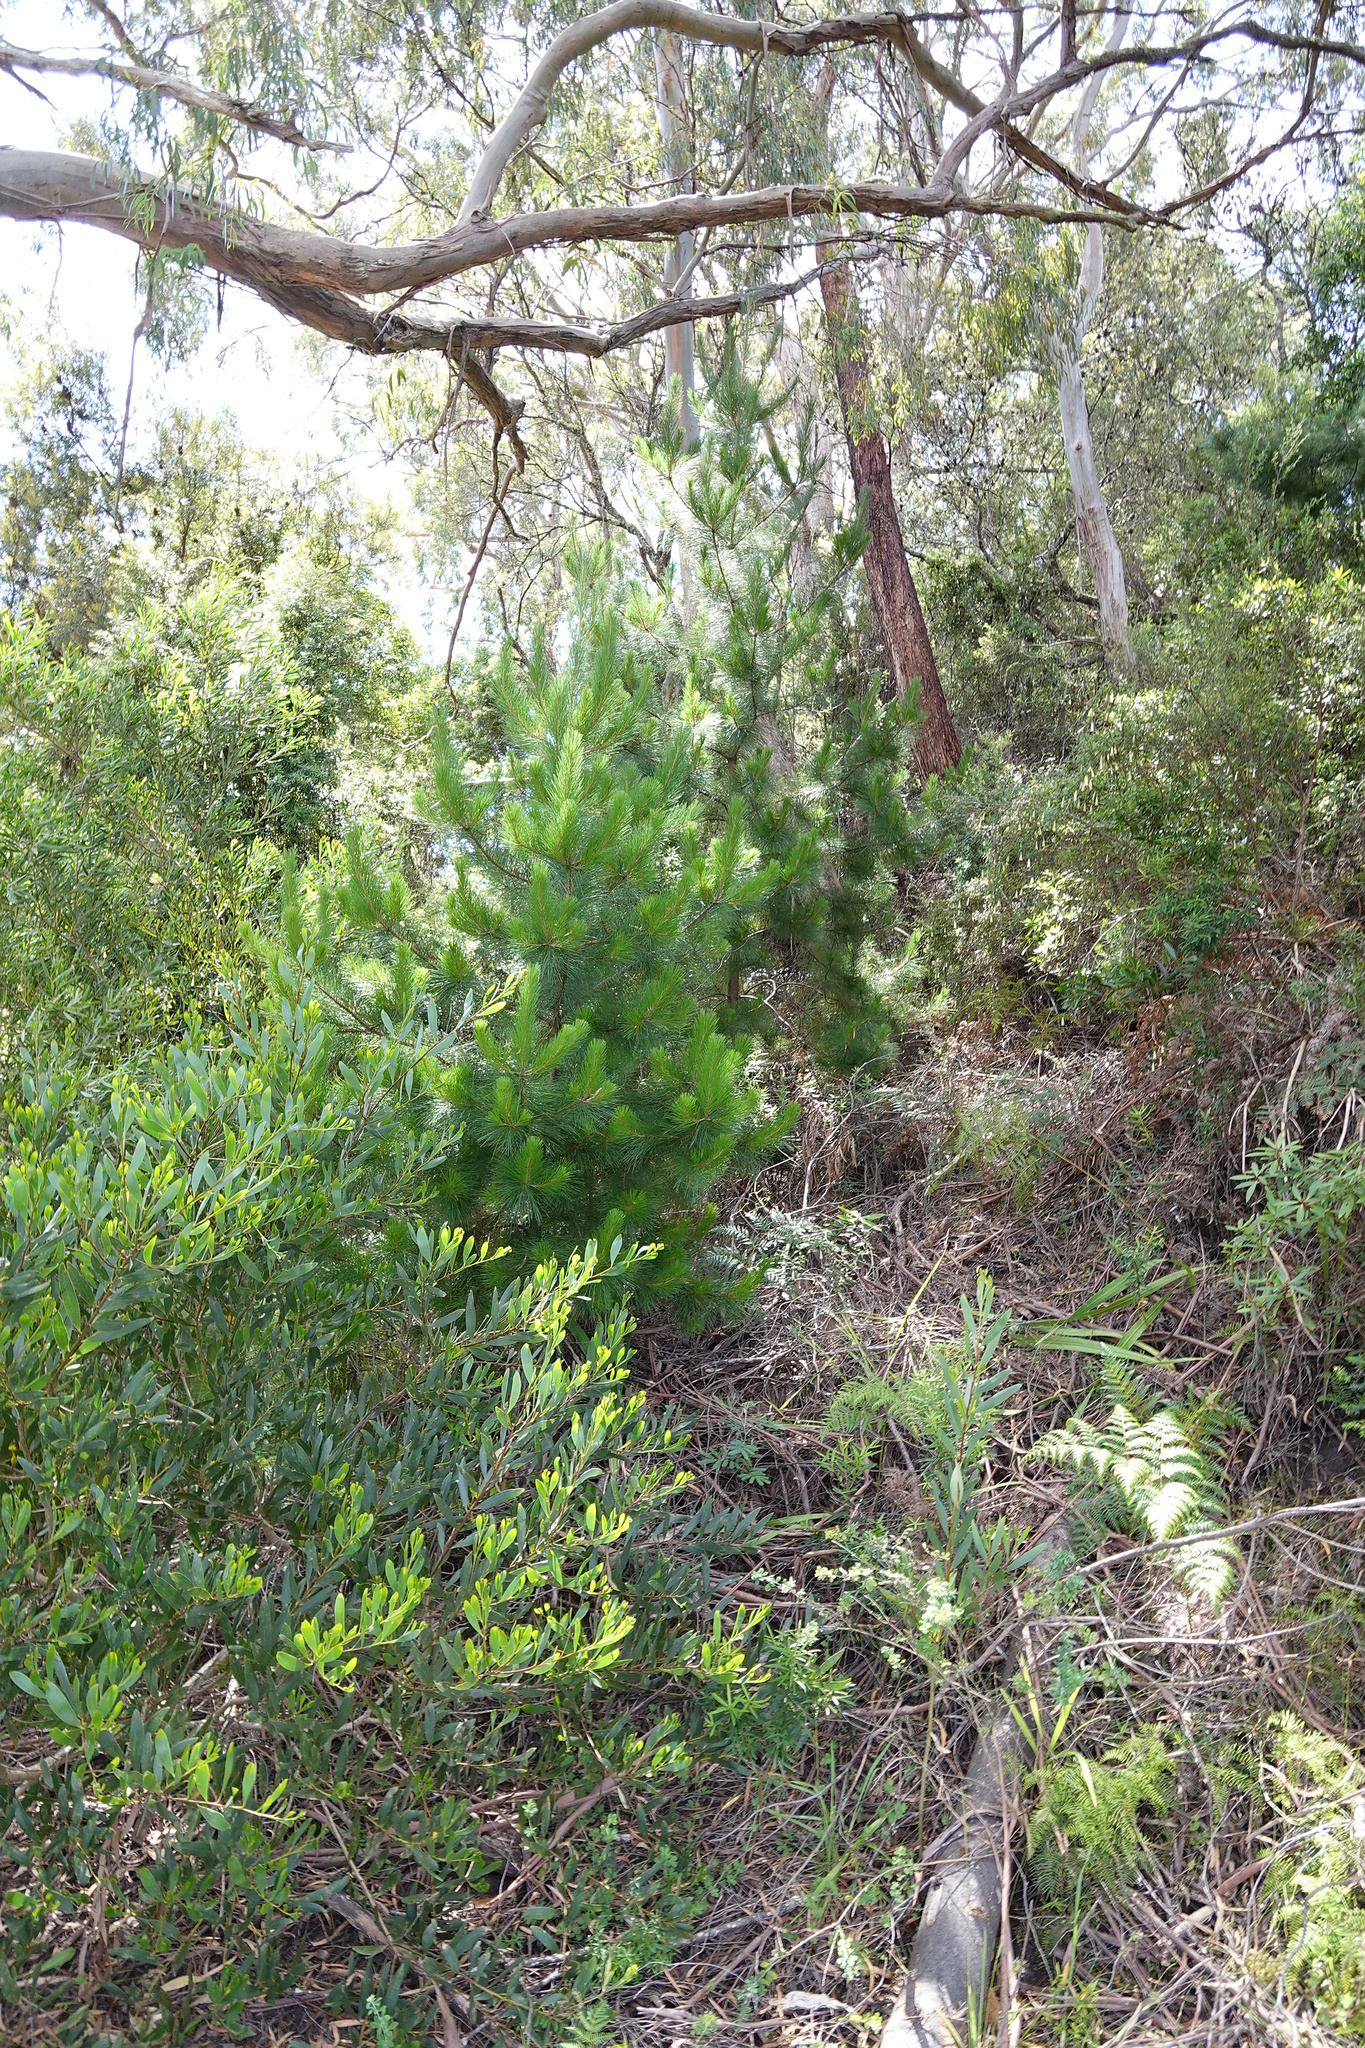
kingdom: Plantae
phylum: Tracheophyta
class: Pinopsida
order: Pinales
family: Pinaceae
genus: Pinus
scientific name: Pinus radiata
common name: Monterey pine
